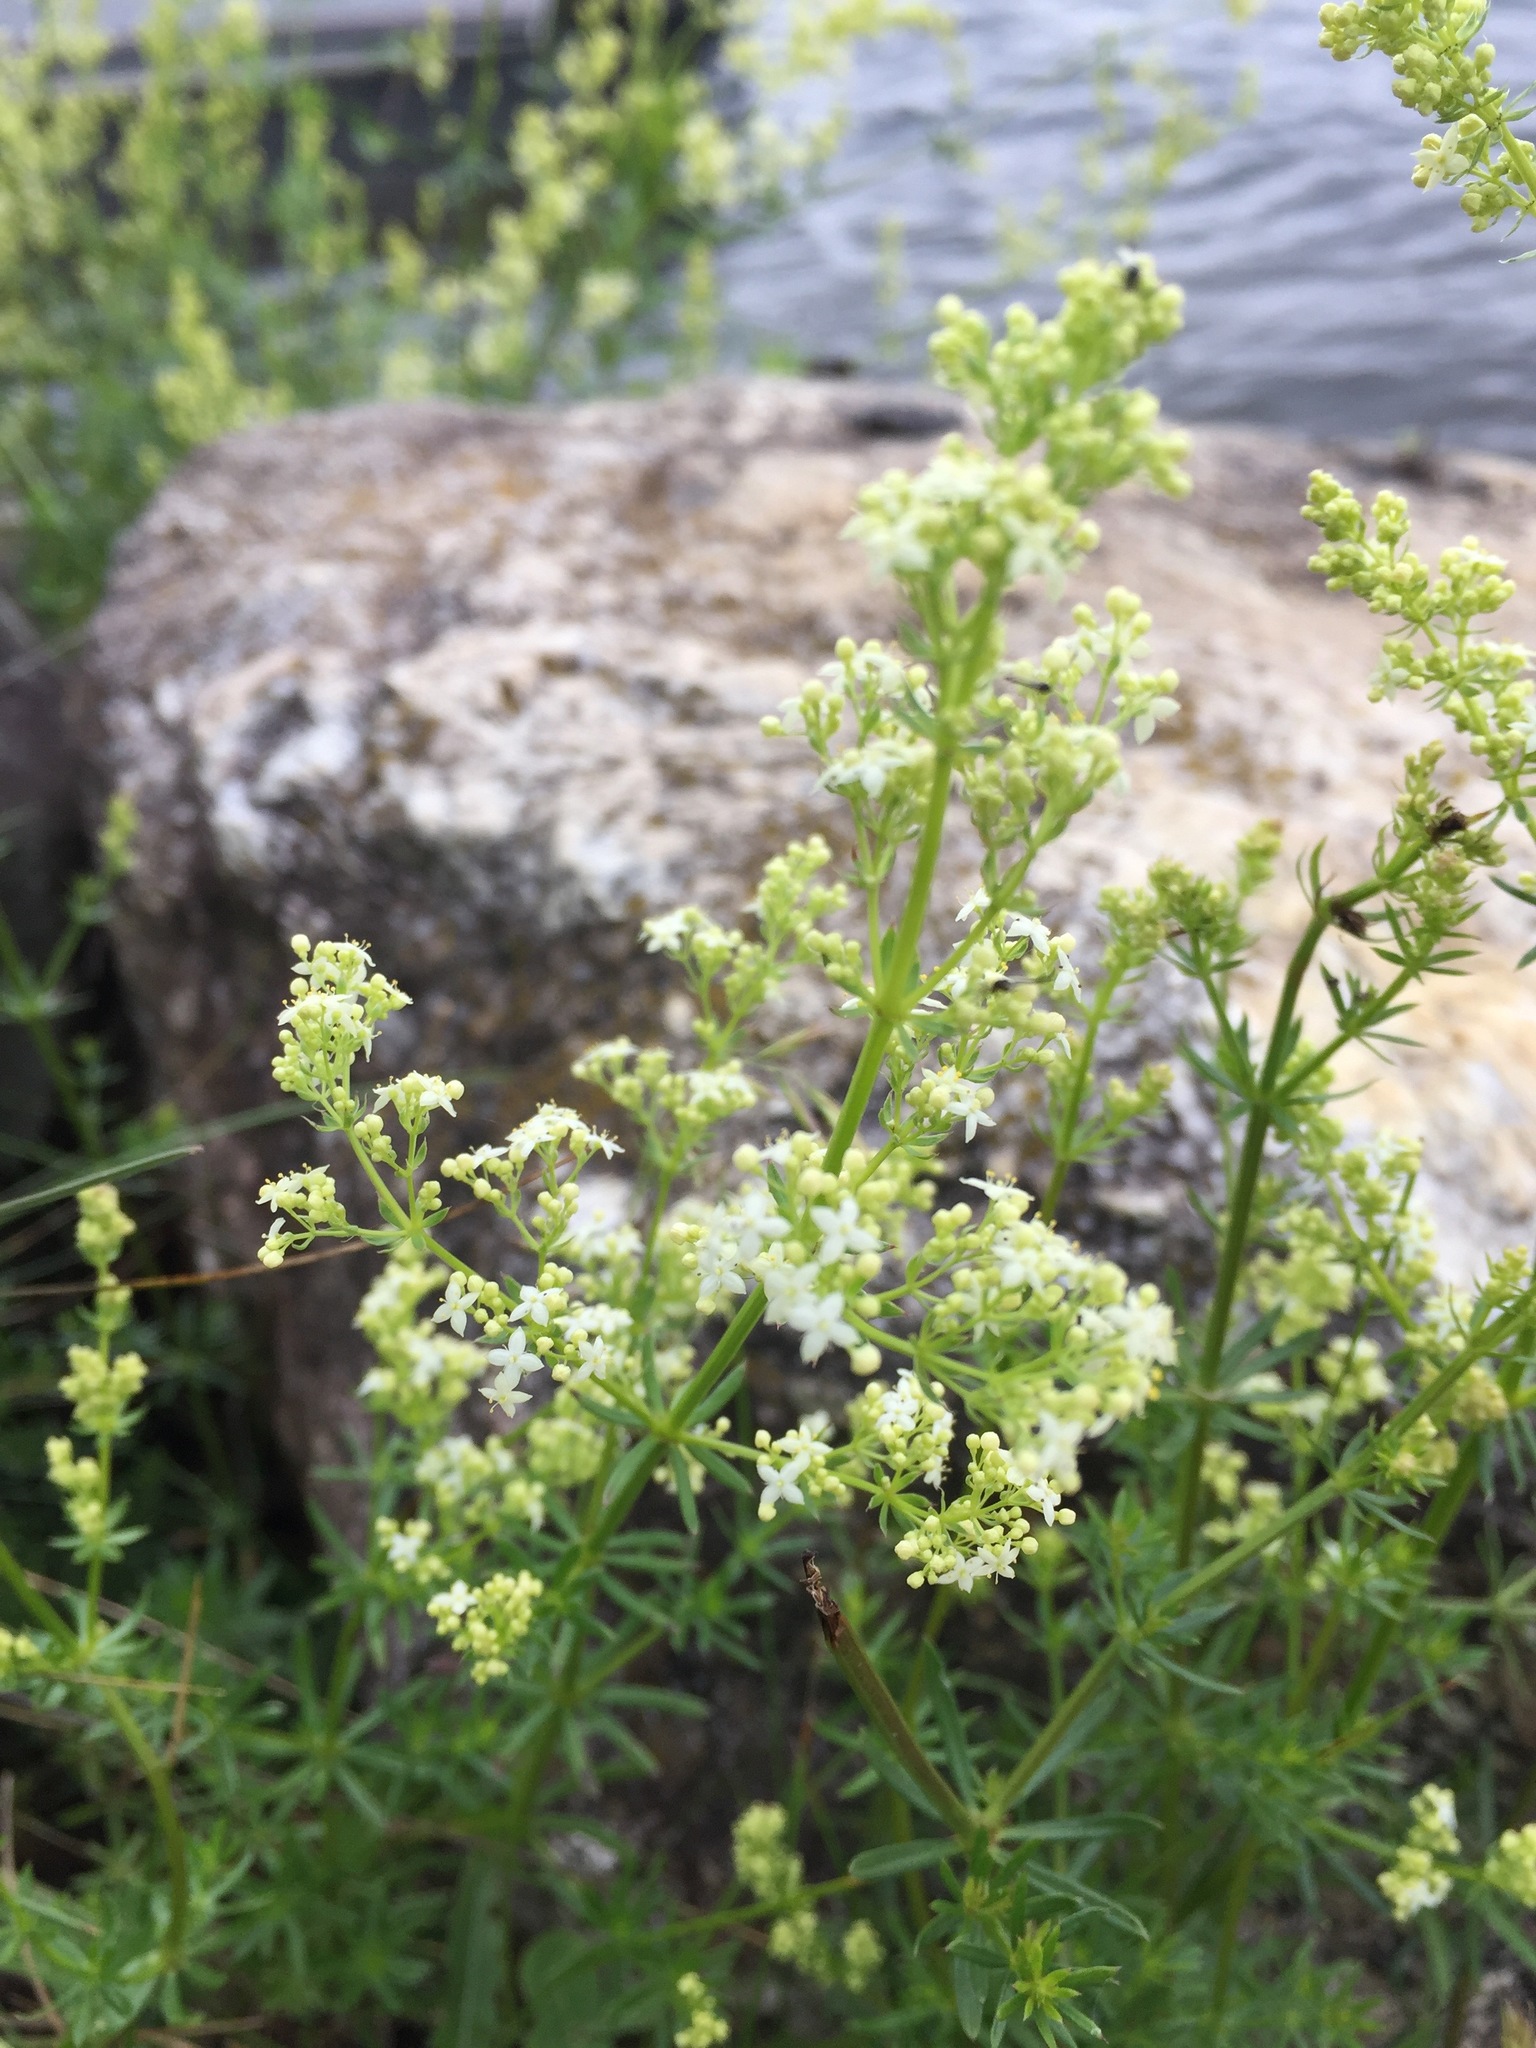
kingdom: Plantae
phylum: Tracheophyta
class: Magnoliopsida
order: Gentianales
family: Rubiaceae
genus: Galium
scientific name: Galium mollugo
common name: Hedge bedstraw
